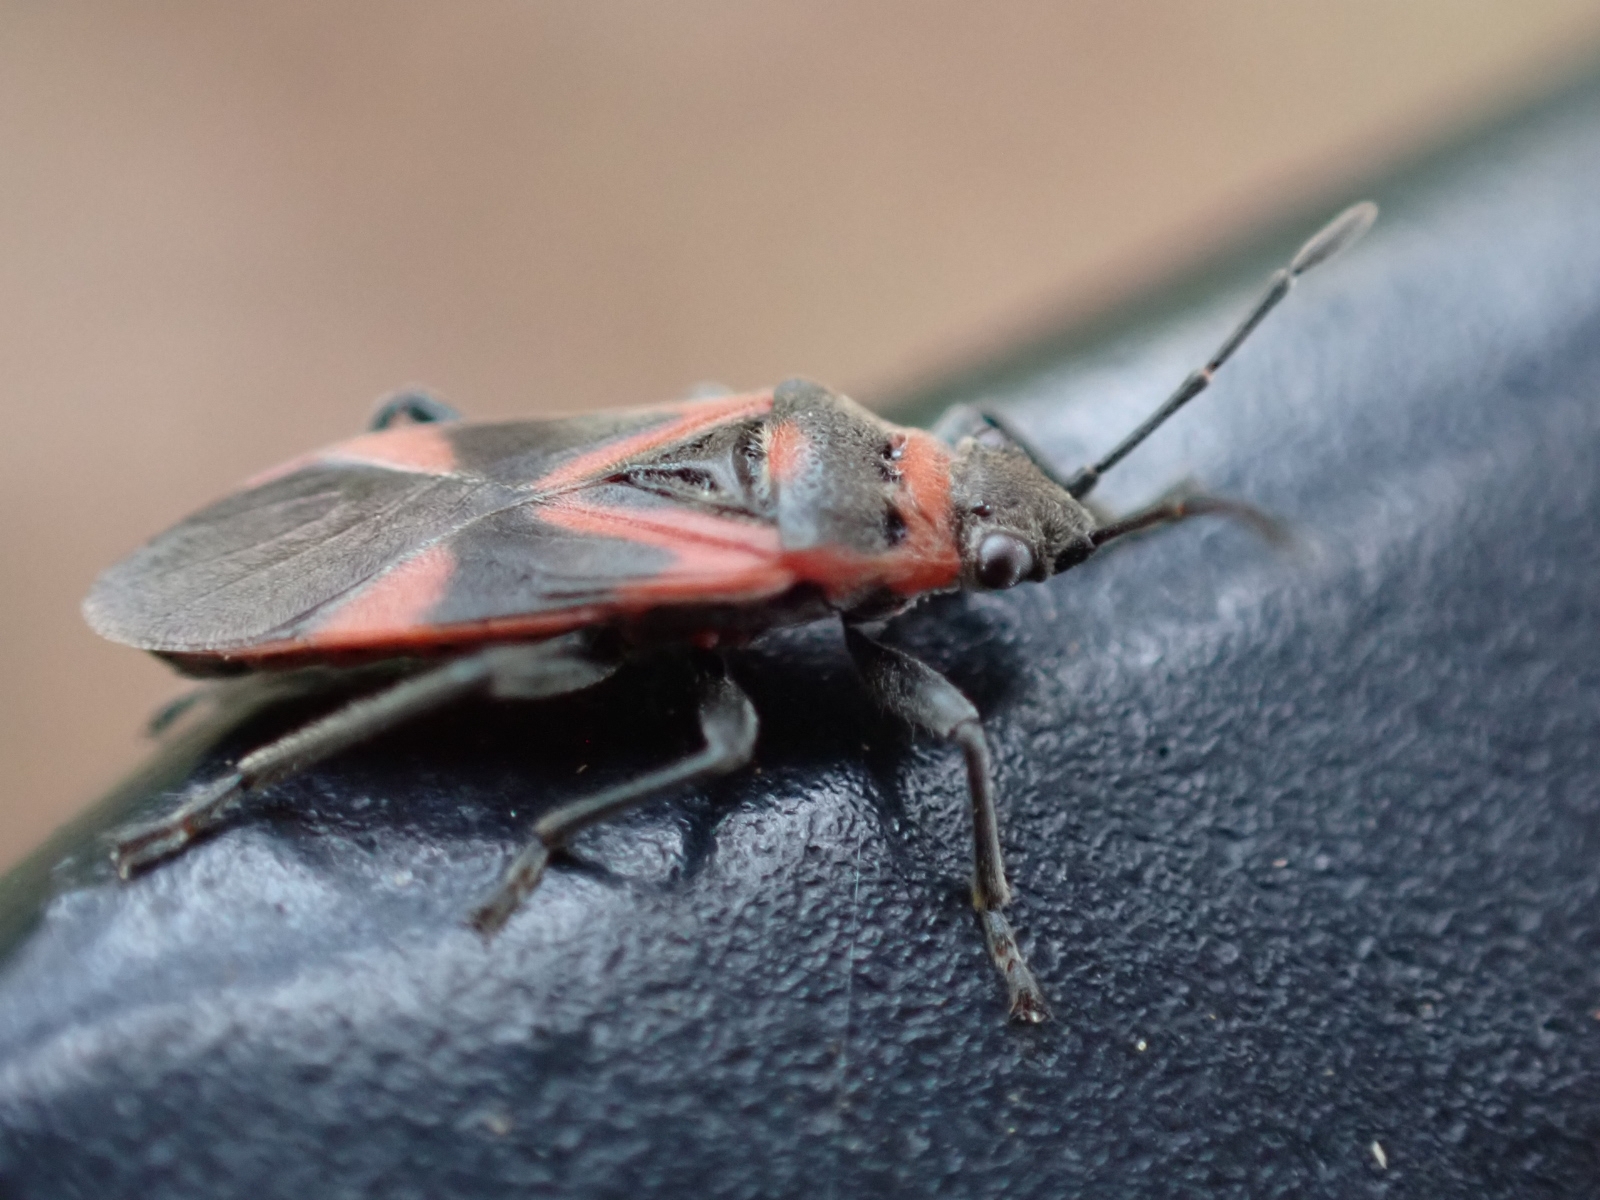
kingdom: Animalia
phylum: Arthropoda
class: Insecta
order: Hemiptera
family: Lygaeidae
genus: Arocatus
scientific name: Arocatus roeselii
